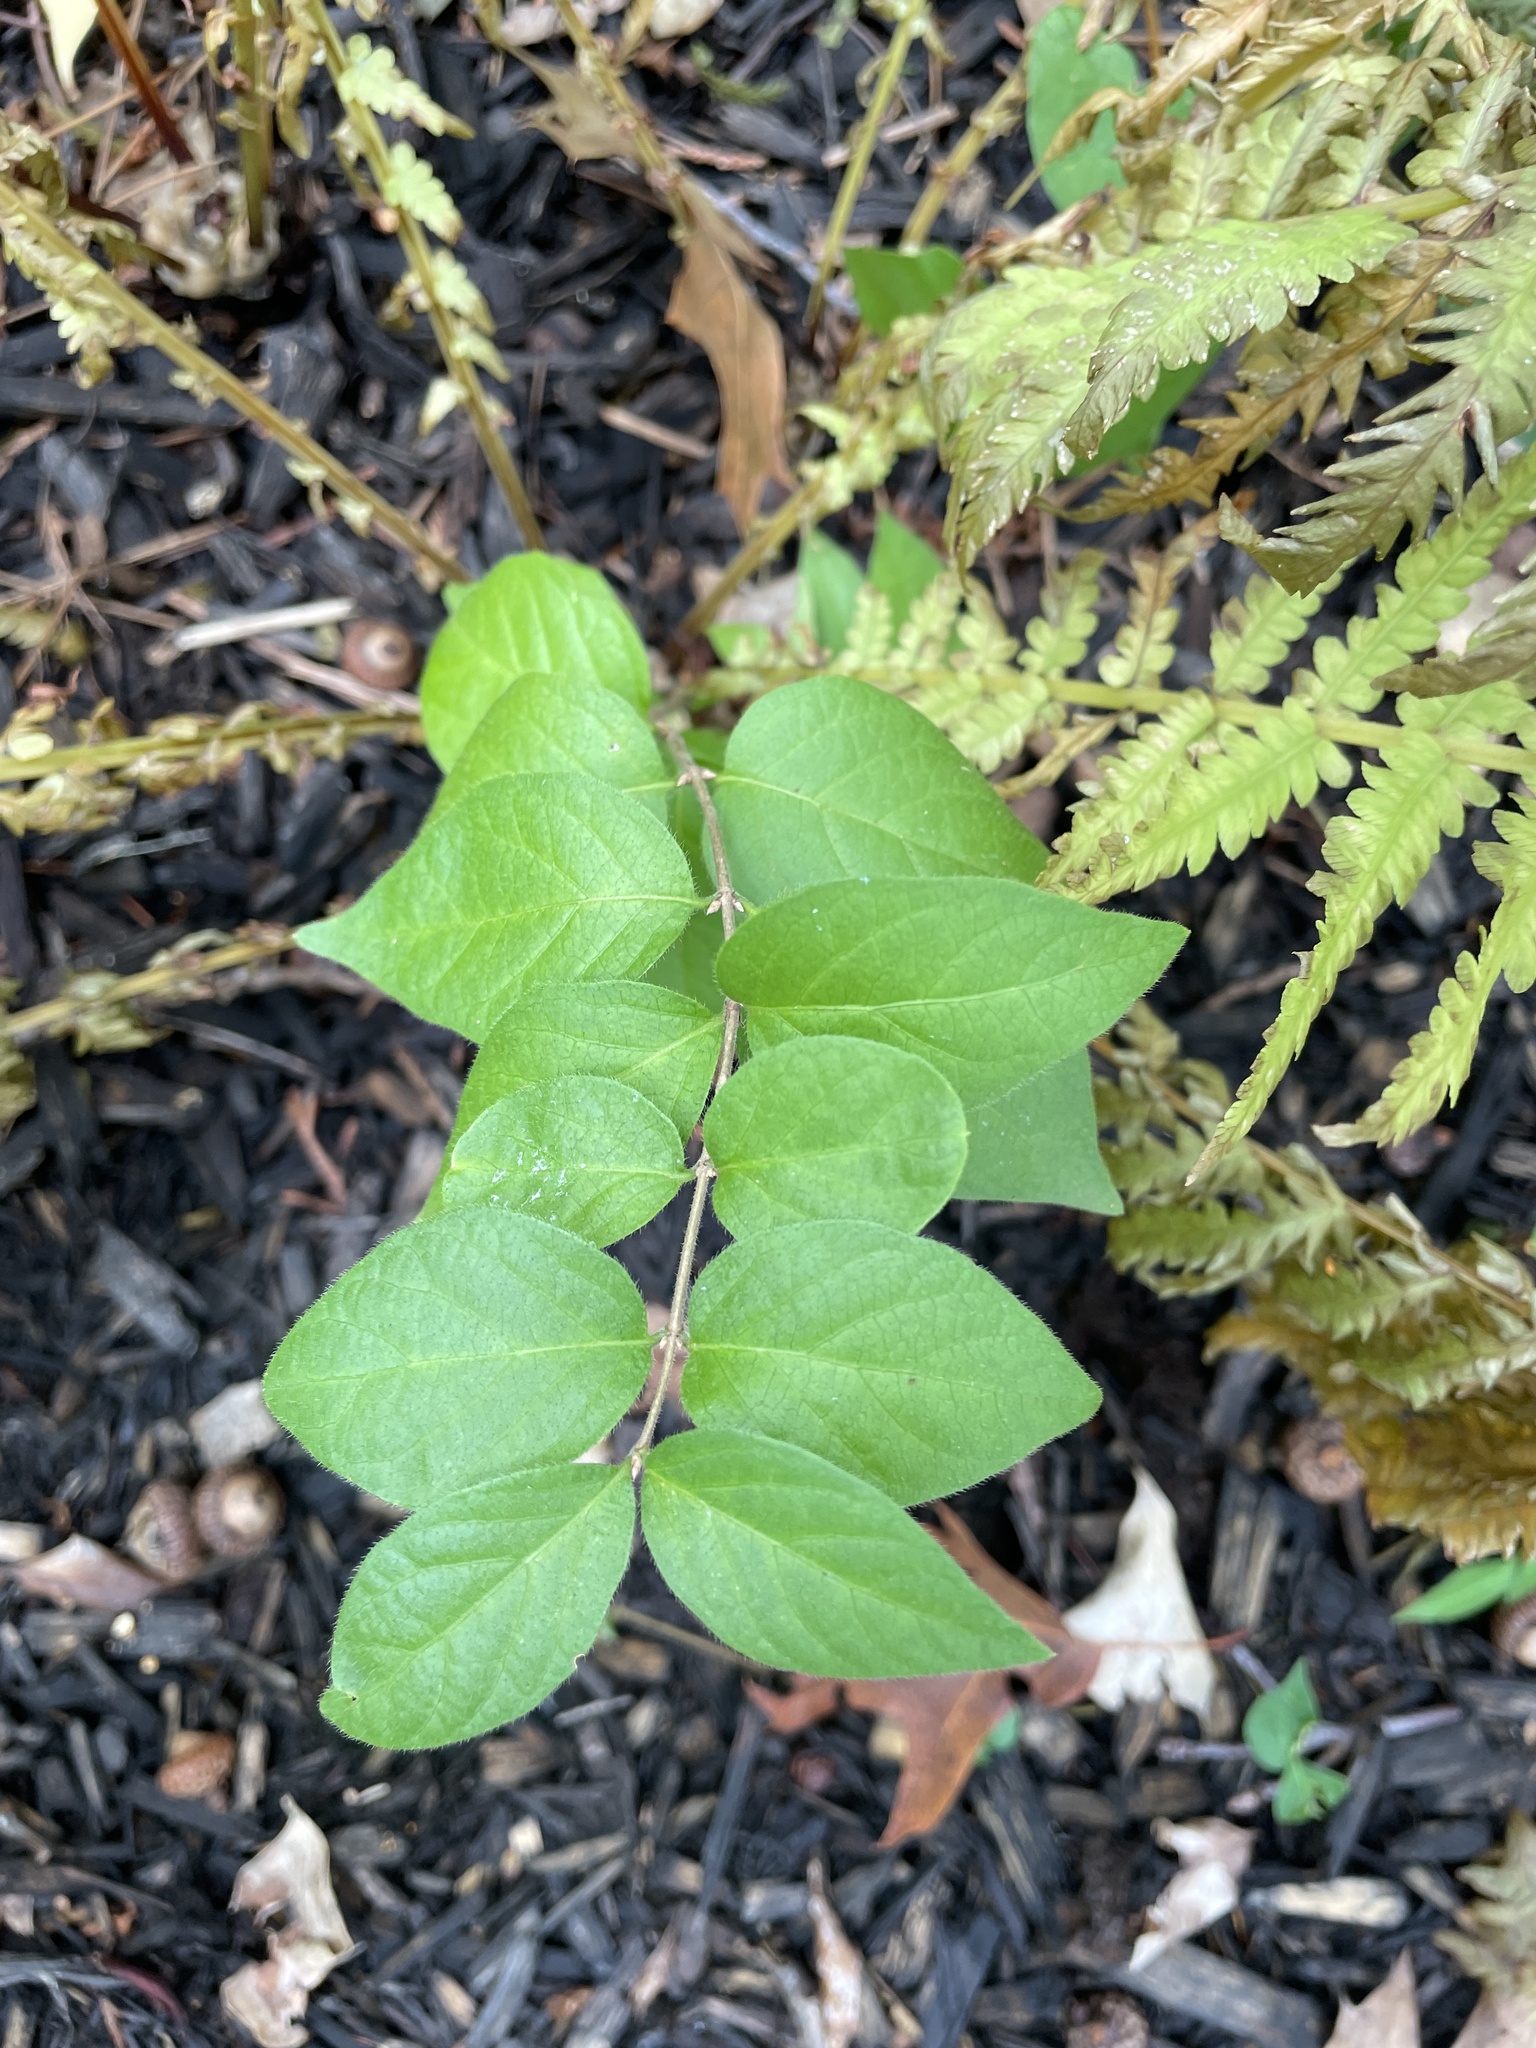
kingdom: Plantae
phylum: Tracheophyta
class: Magnoliopsida
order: Dipsacales
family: Caprifoliaceae
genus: Lonicera
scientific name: Lonicera maackii
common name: Amur honeysuckle
